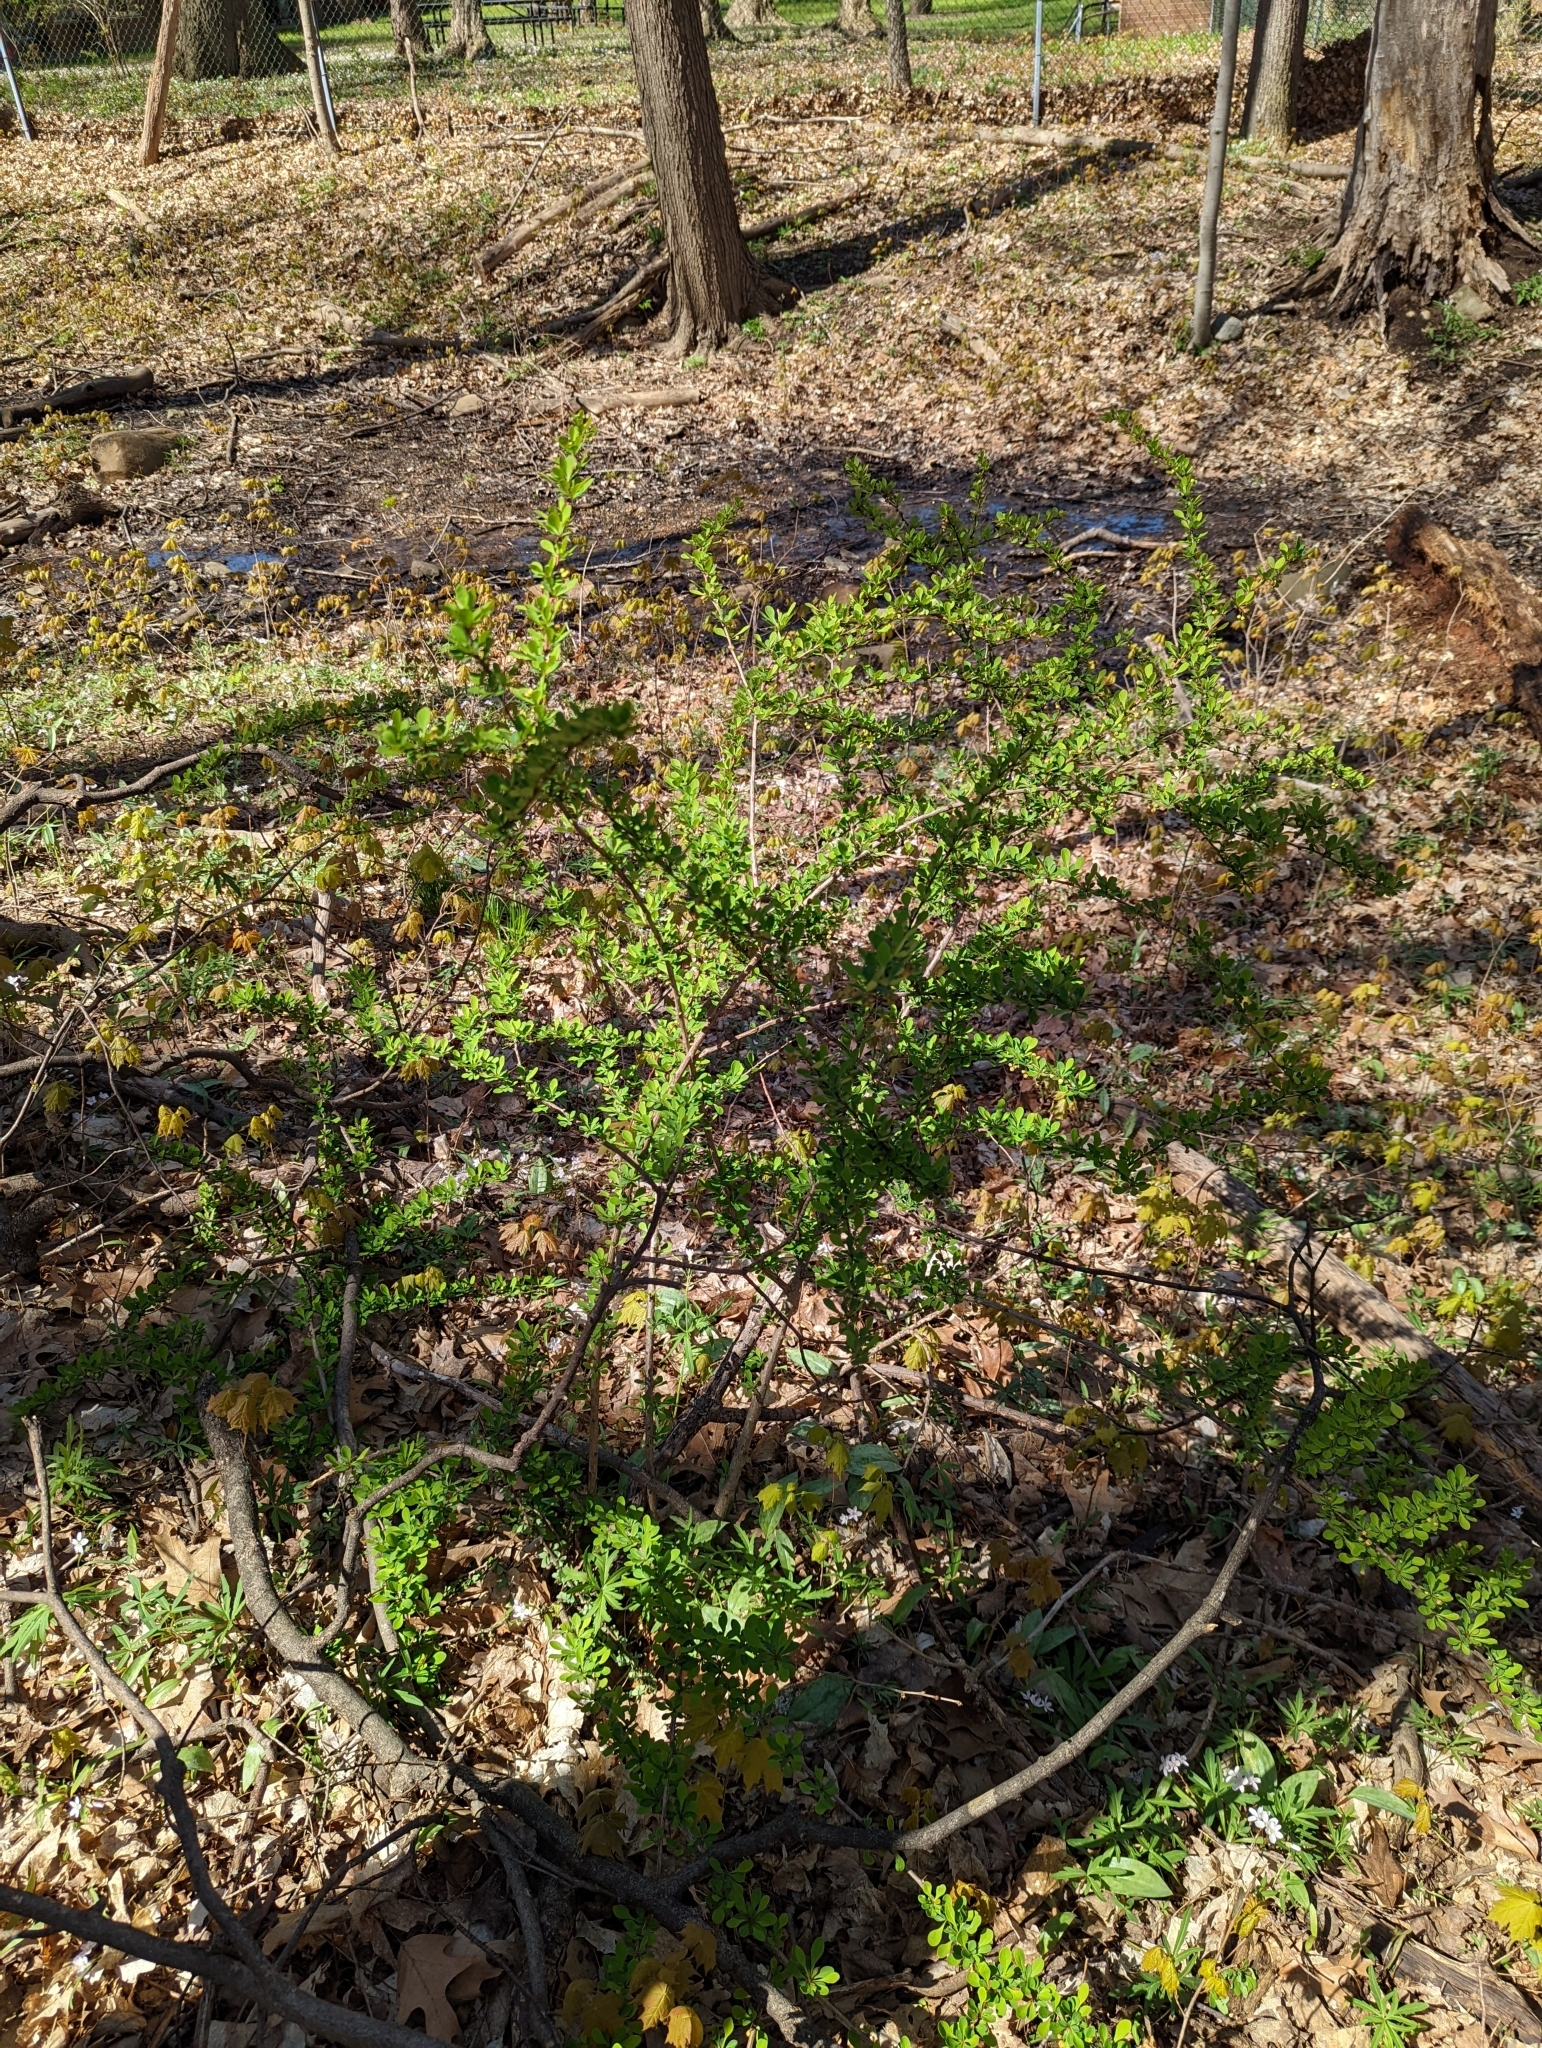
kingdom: Plantae
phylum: Tracheophyta
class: Magnoliopsida
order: Ranunculales
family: Berberidaceae
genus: Berberis
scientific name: Berberis thunbergii
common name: Japanese barberry
